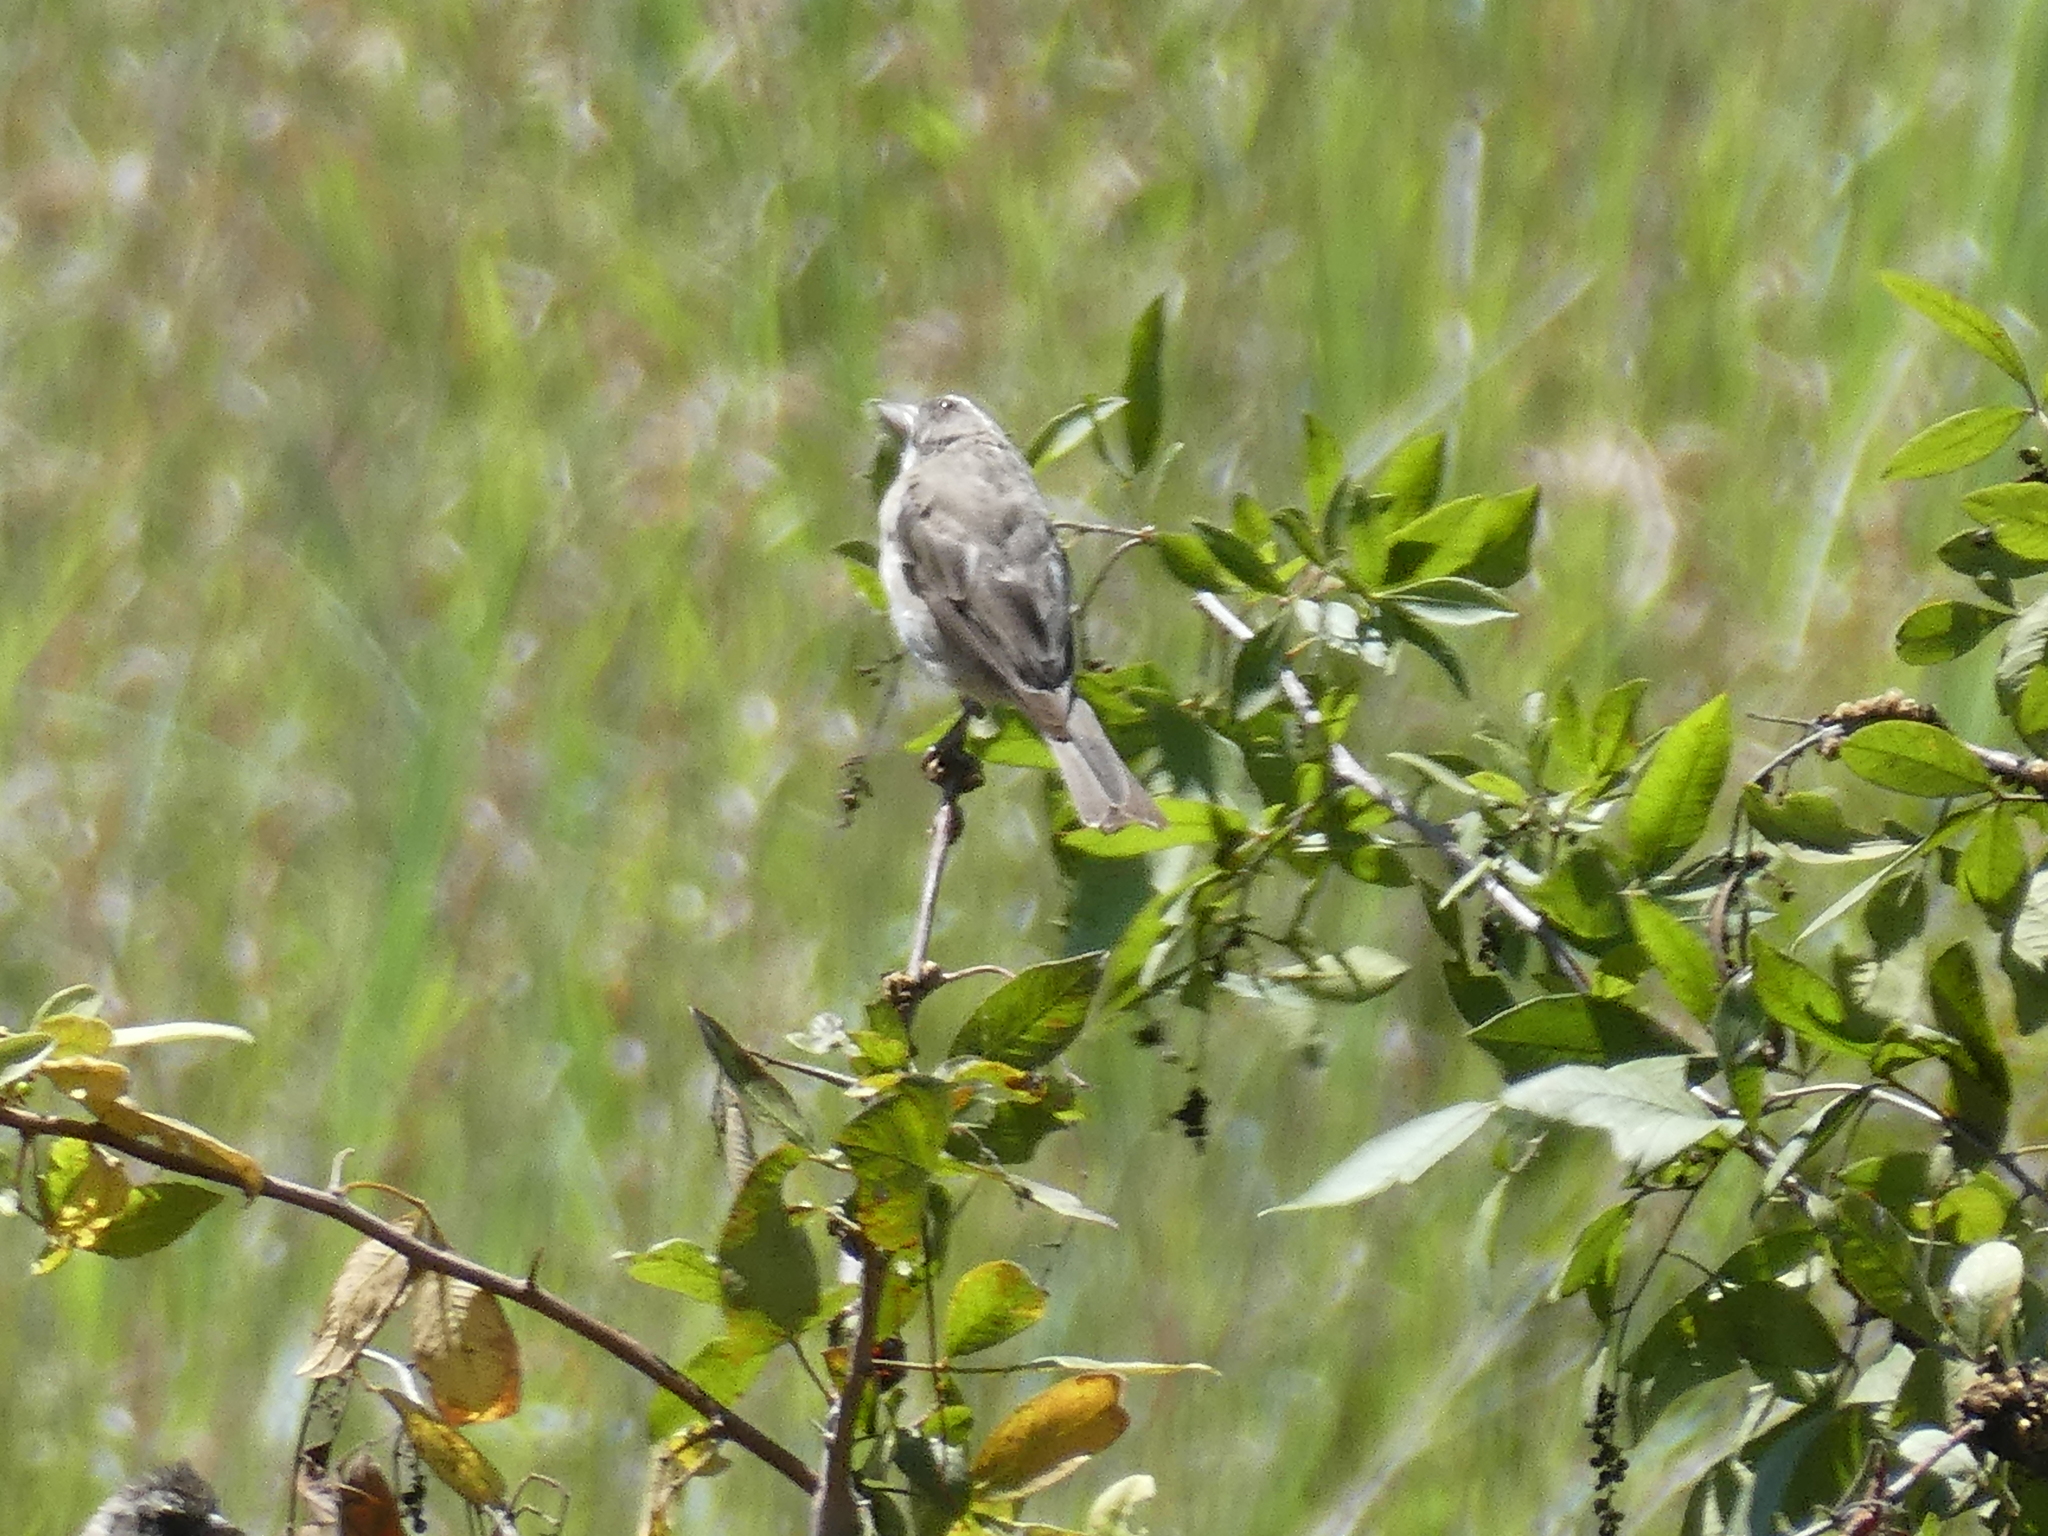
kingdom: Animalia
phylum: Chordata
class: Aves
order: Passeriformes
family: Fringillidae
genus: Crithagra
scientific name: Crithagra gularis
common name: Streaky-headed seedeater
